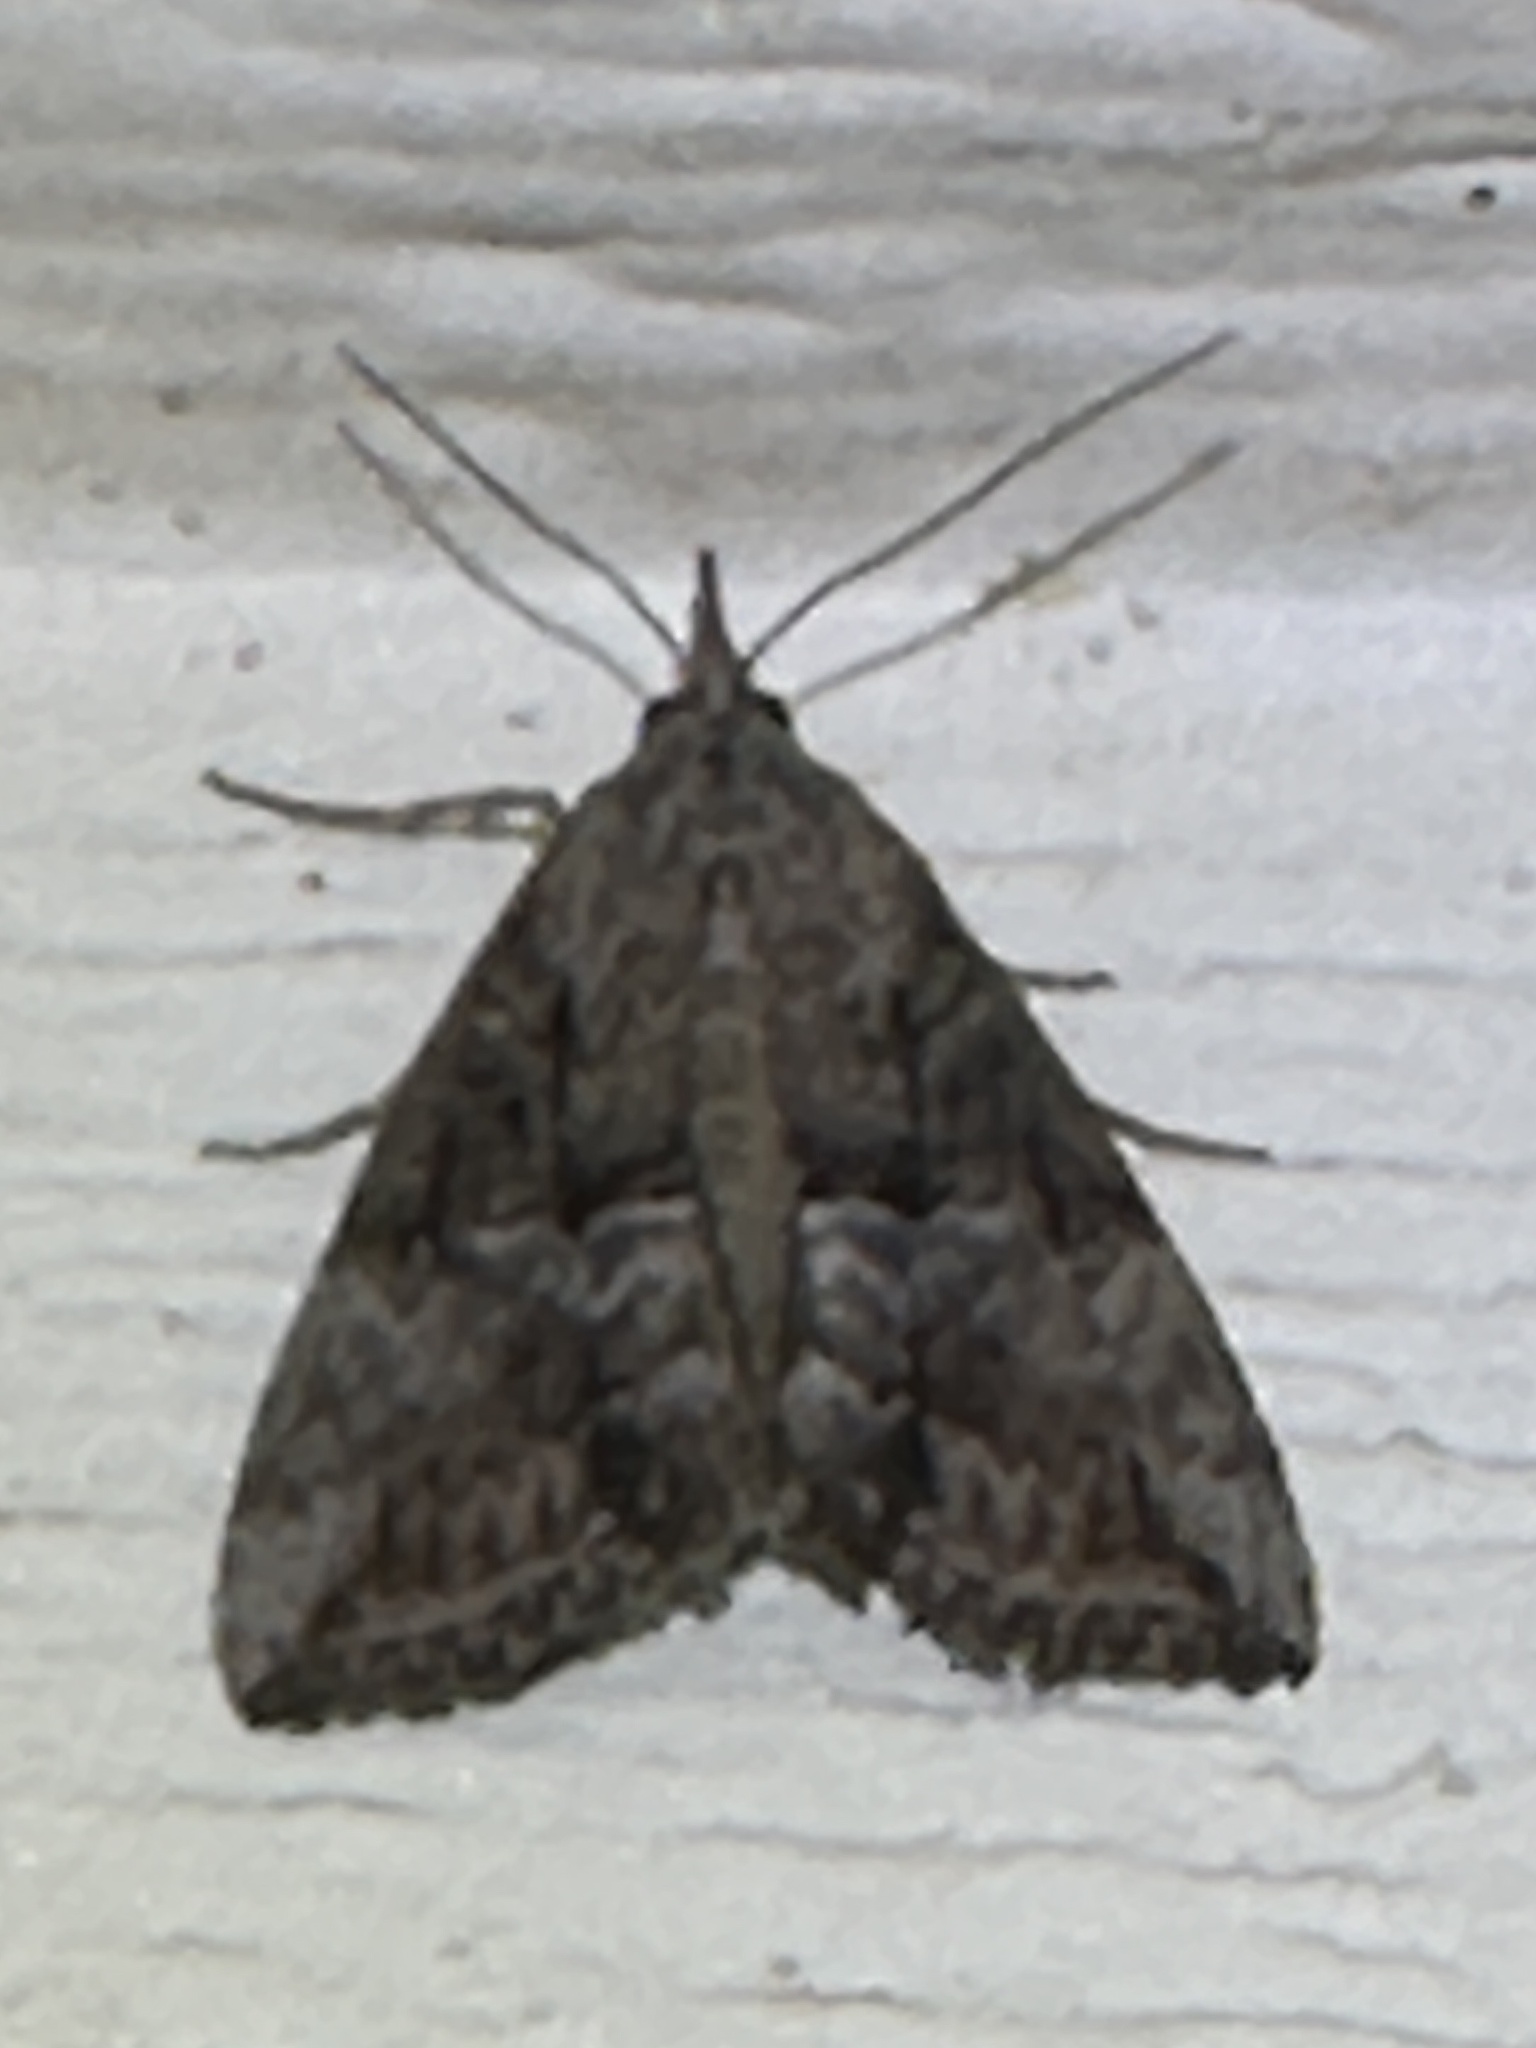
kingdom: Animalia
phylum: Arthropoda
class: Insecta
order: Lepidoptera
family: Erebidae
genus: Hypena
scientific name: Hypena scabra
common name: Green cloverworm
